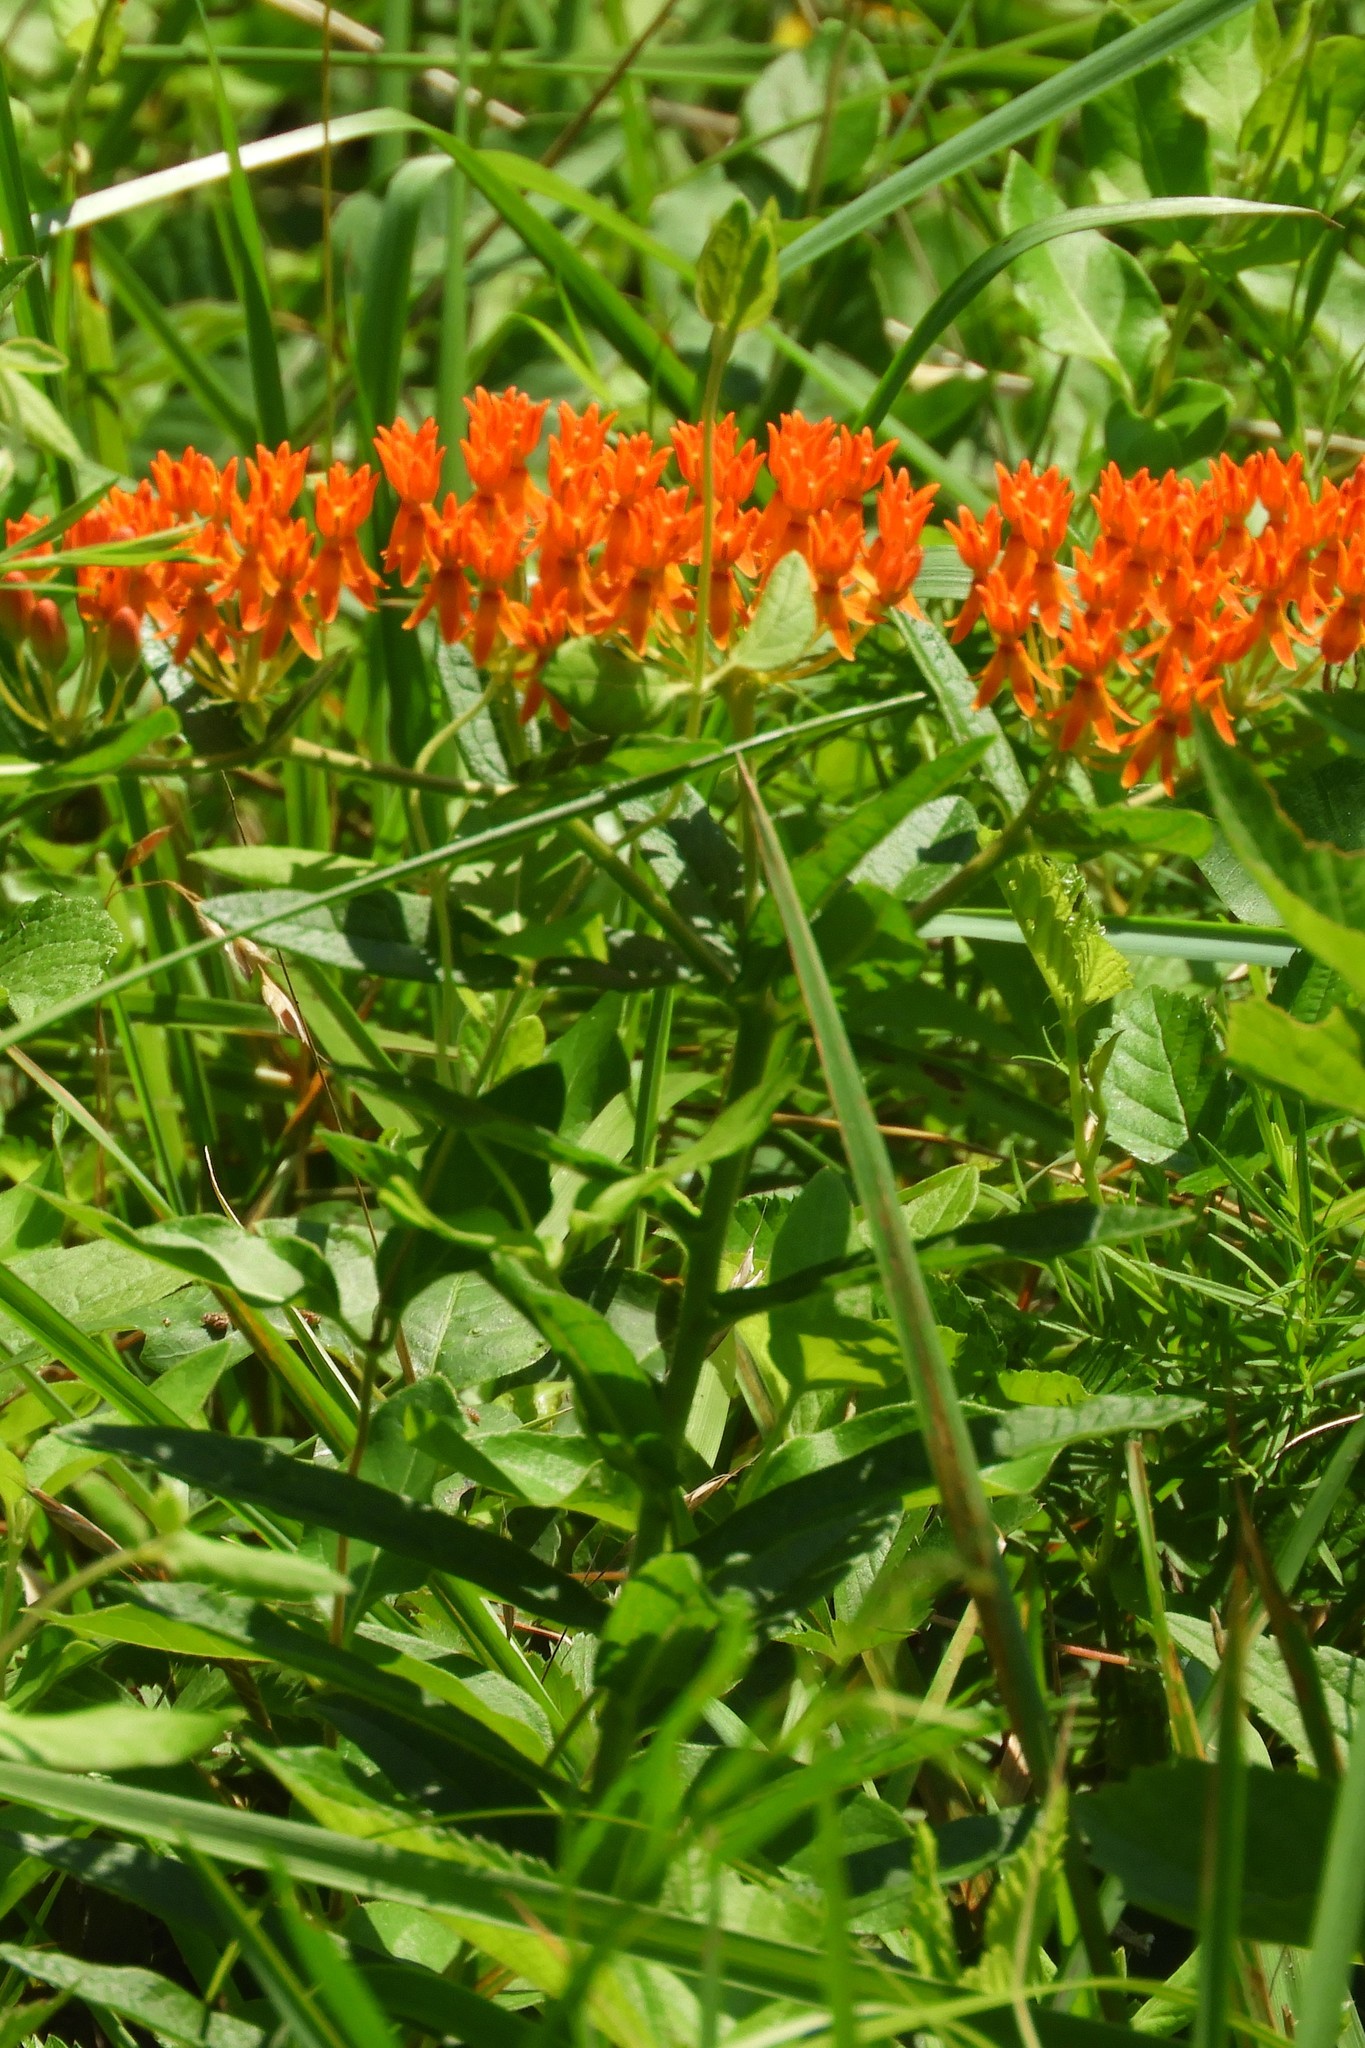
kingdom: Plantae
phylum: Tracheophyta
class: Magnoliopsida
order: Gentianales
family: Apocynaceae
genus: Asclepias
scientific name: Asclepias tuberosa
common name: Butterfly milkweed
